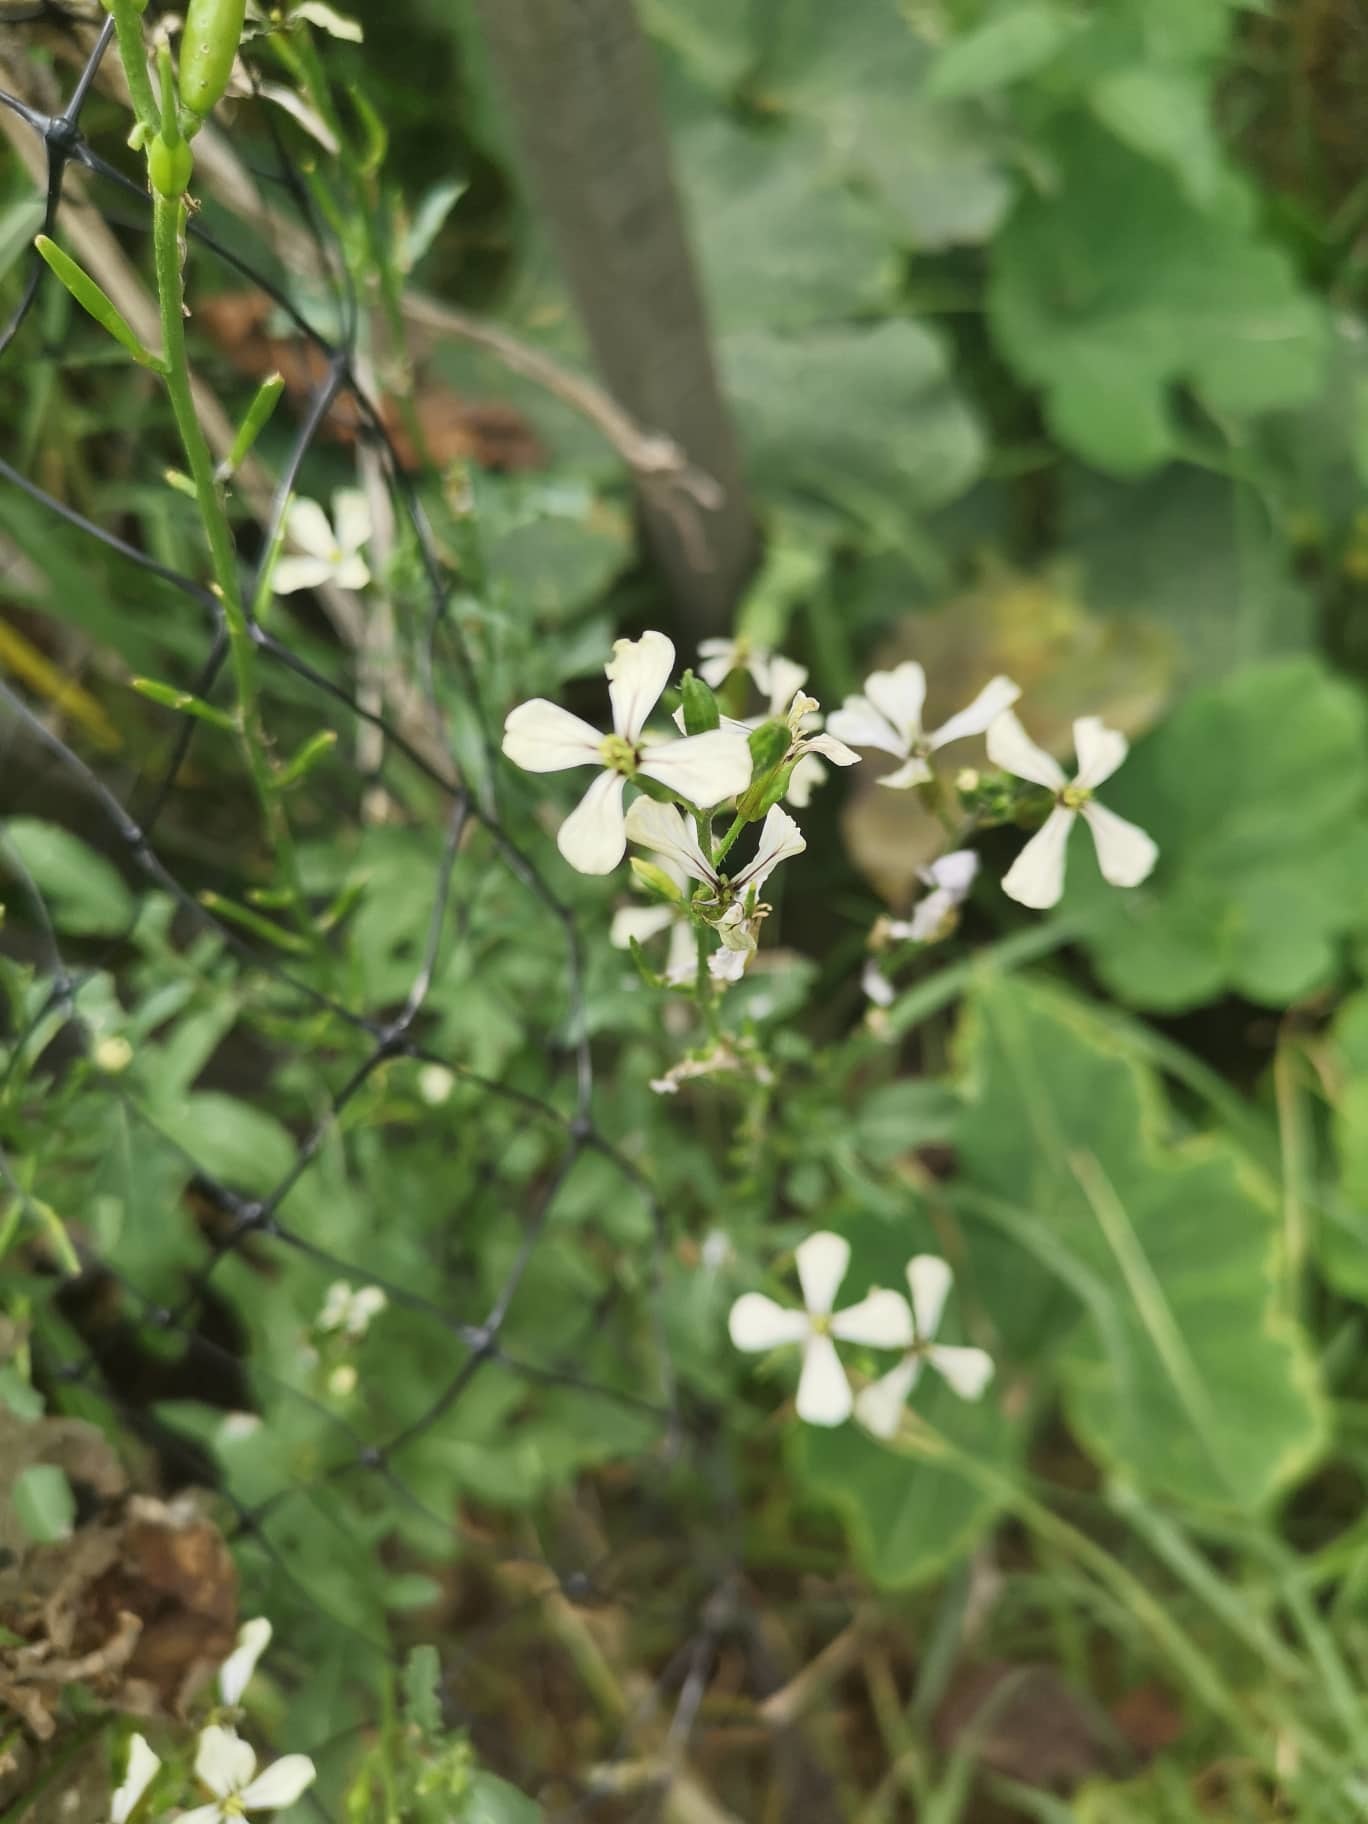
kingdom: Plantae
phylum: Tracheophyta
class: Magnoliopsida
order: Brassicales
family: Brassicaceae
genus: Raphanus
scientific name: Raphanus sativus
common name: Cultivated radish
